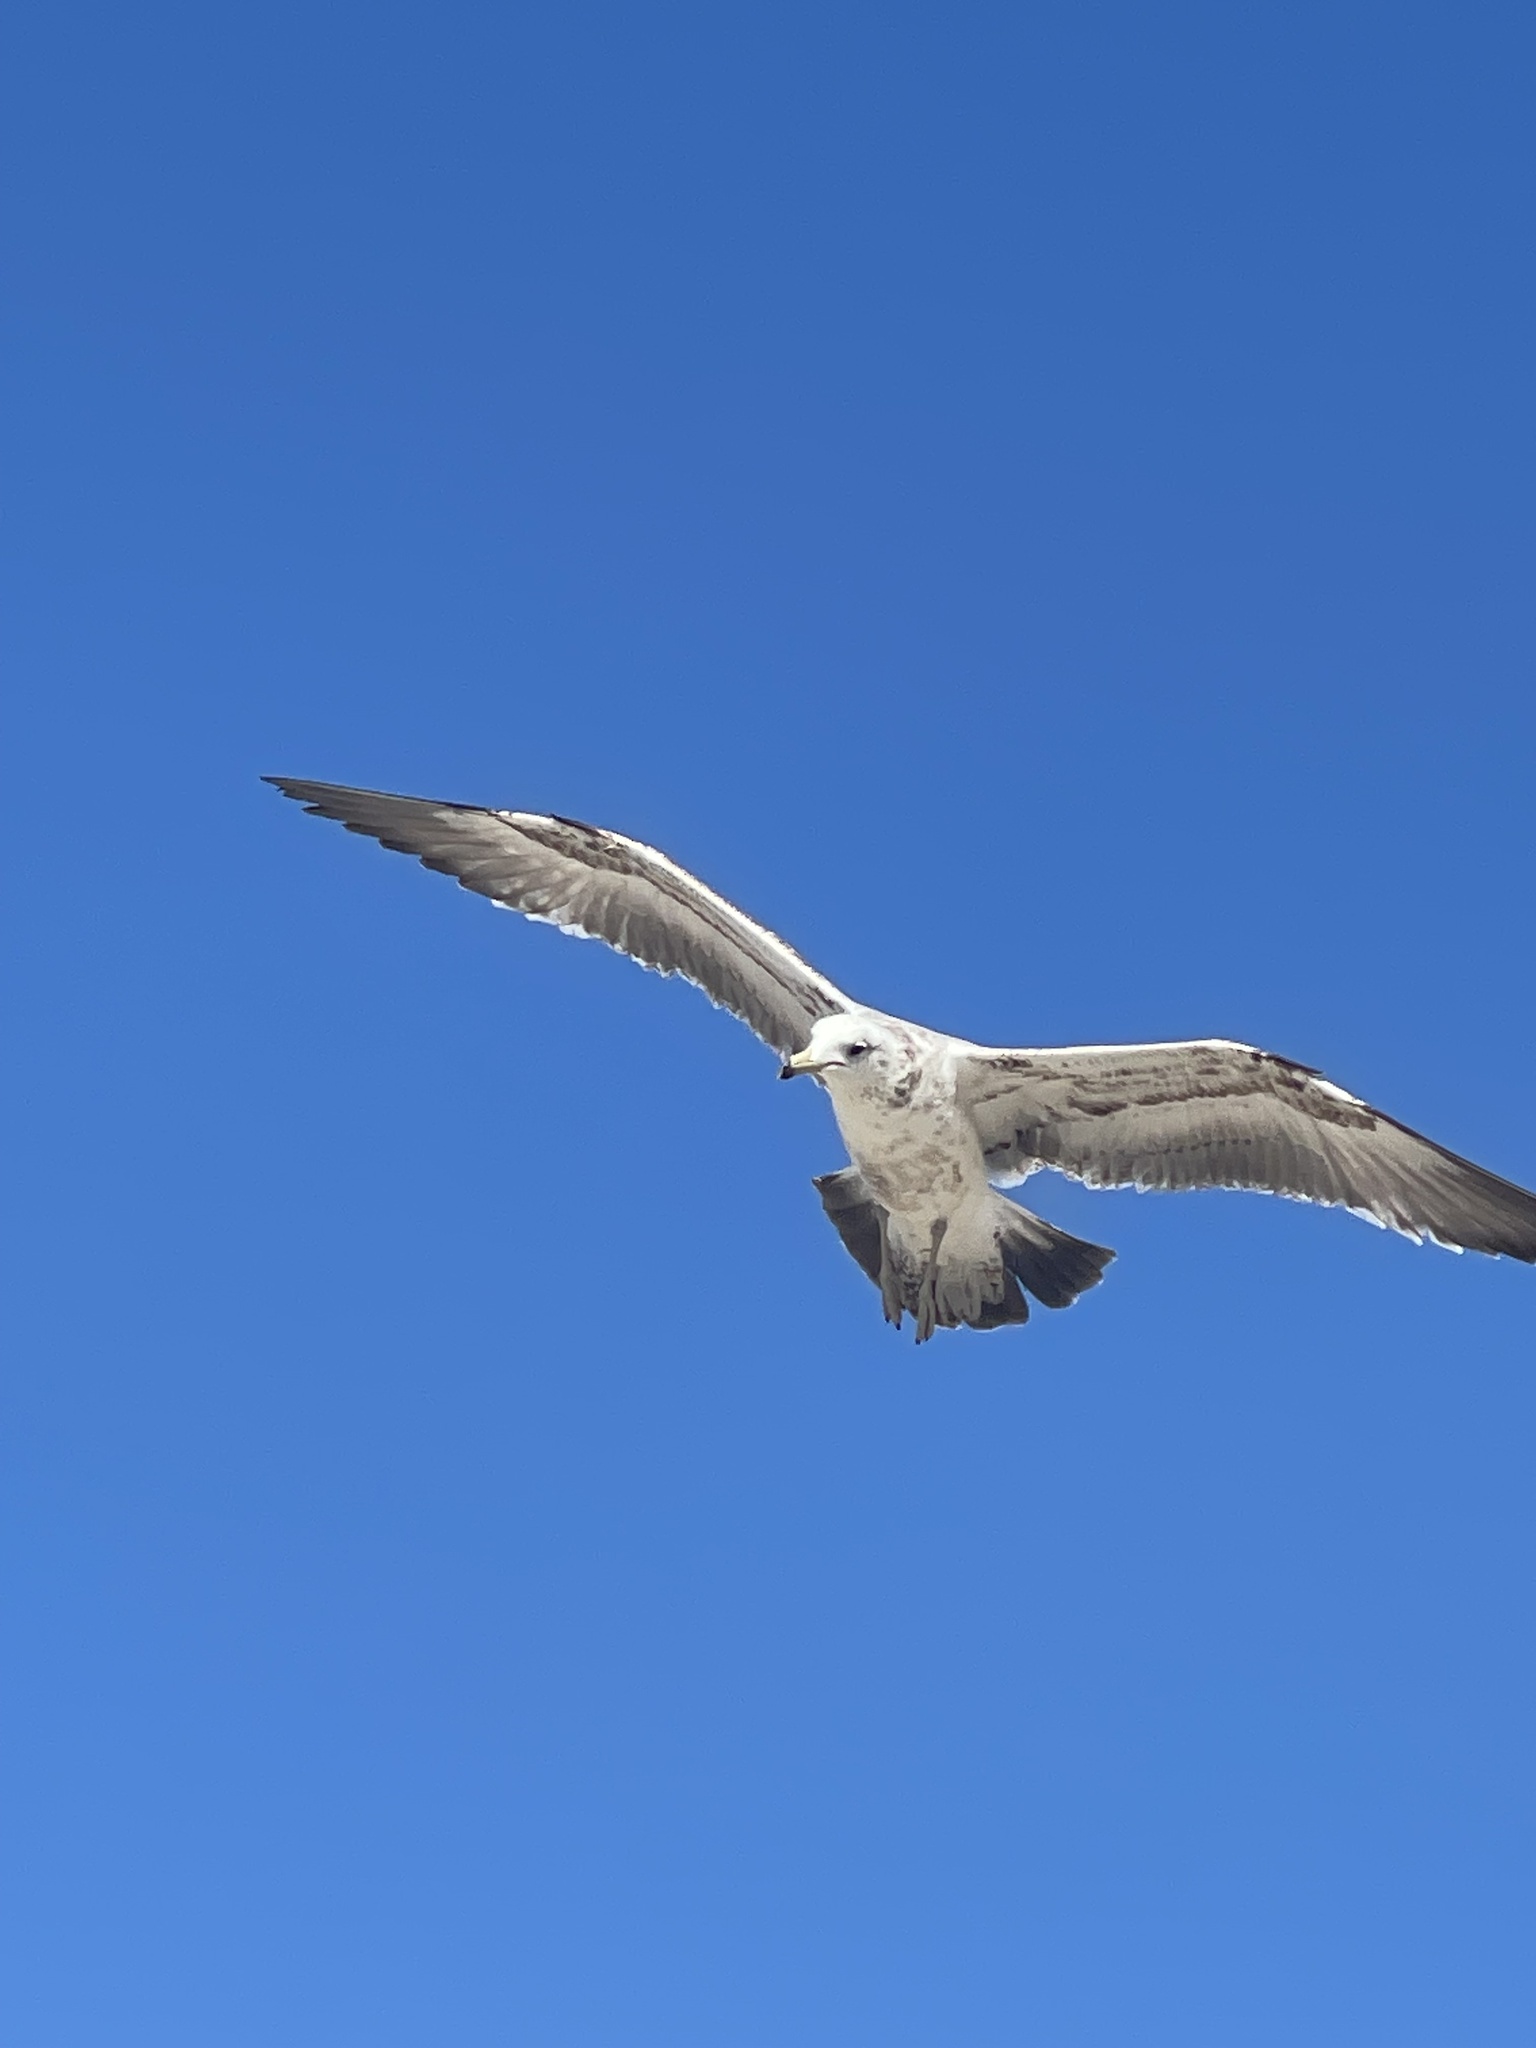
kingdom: Animalia
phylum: Chordata
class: Aves
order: Charadriiformes
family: Laridae
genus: Larus
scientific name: Larus californicus
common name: California gull
